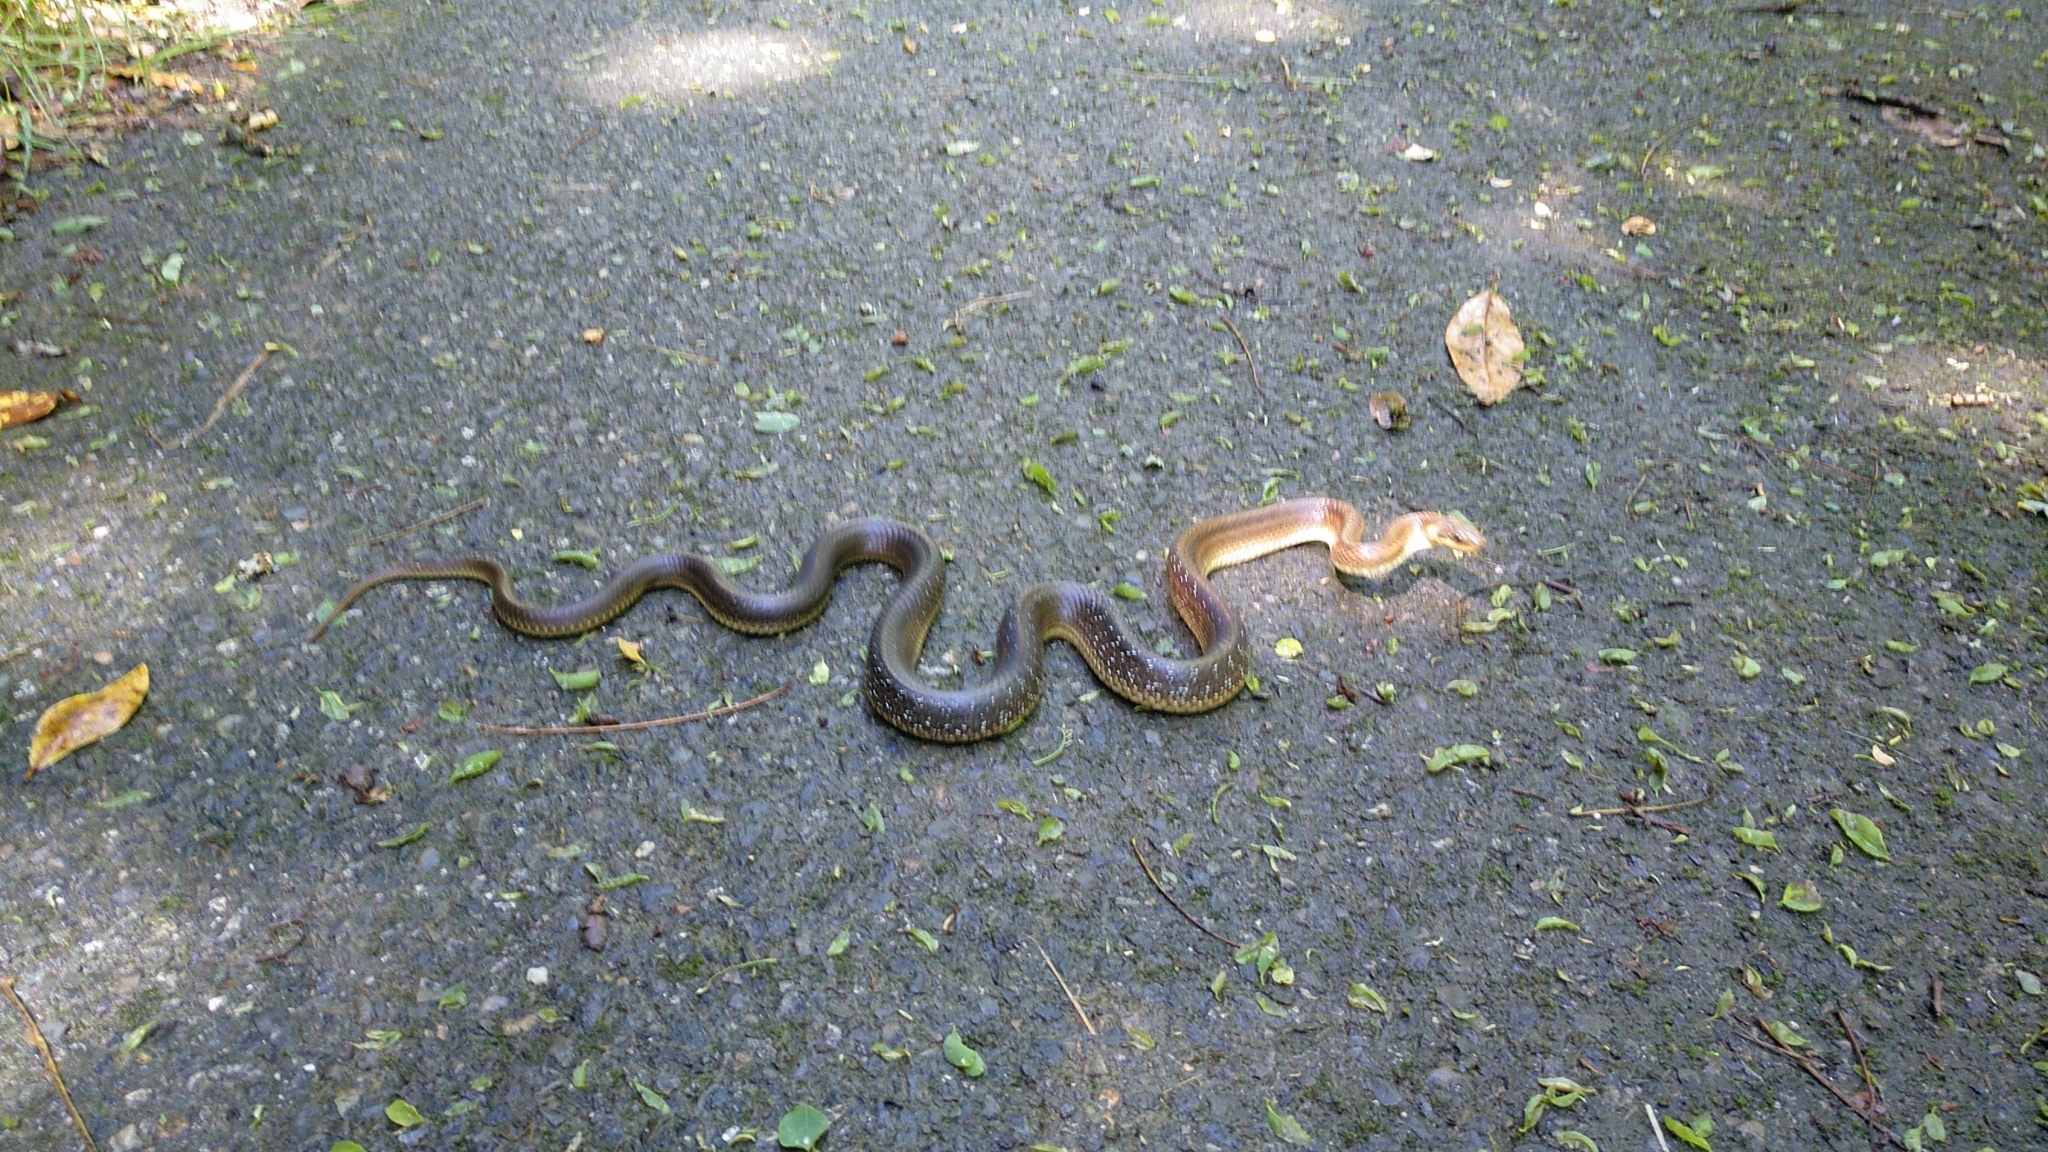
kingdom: Animalia
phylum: Chordata
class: Squamata
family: Colubridae
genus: Zamenis
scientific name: Zamenis longissimus
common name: Aesculapean snake
